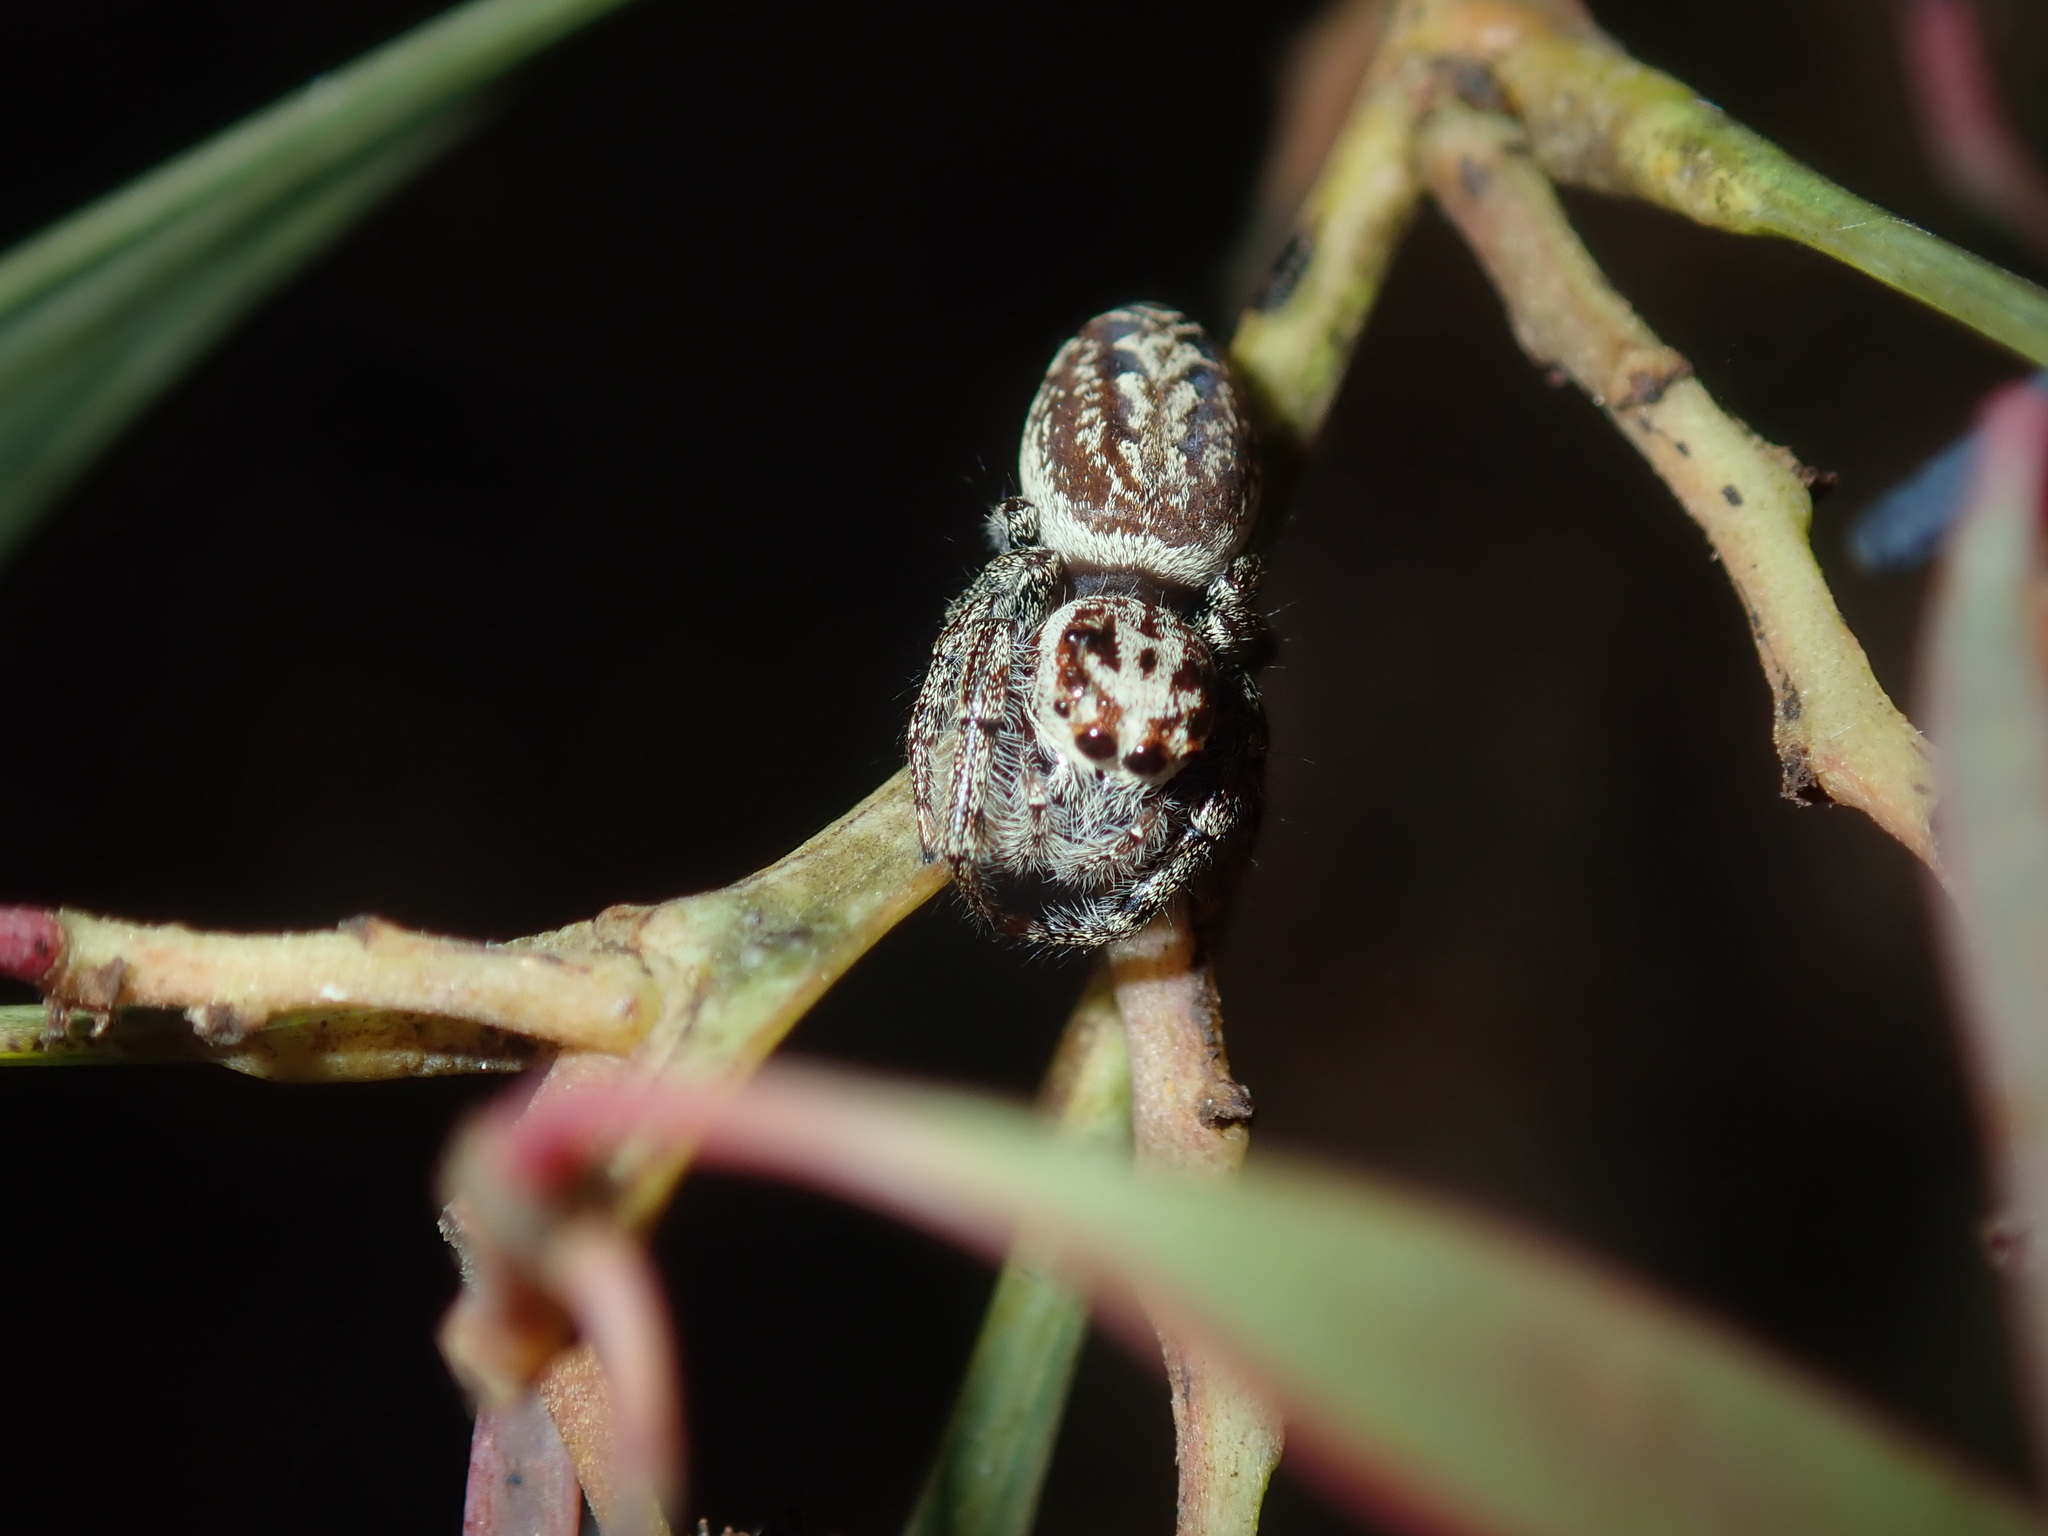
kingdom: Animalia
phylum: Arthropoda
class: Arachnida
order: Araneae
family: Salticidae
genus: Opisthoncus
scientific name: Opisthoncus serratofasciatus
